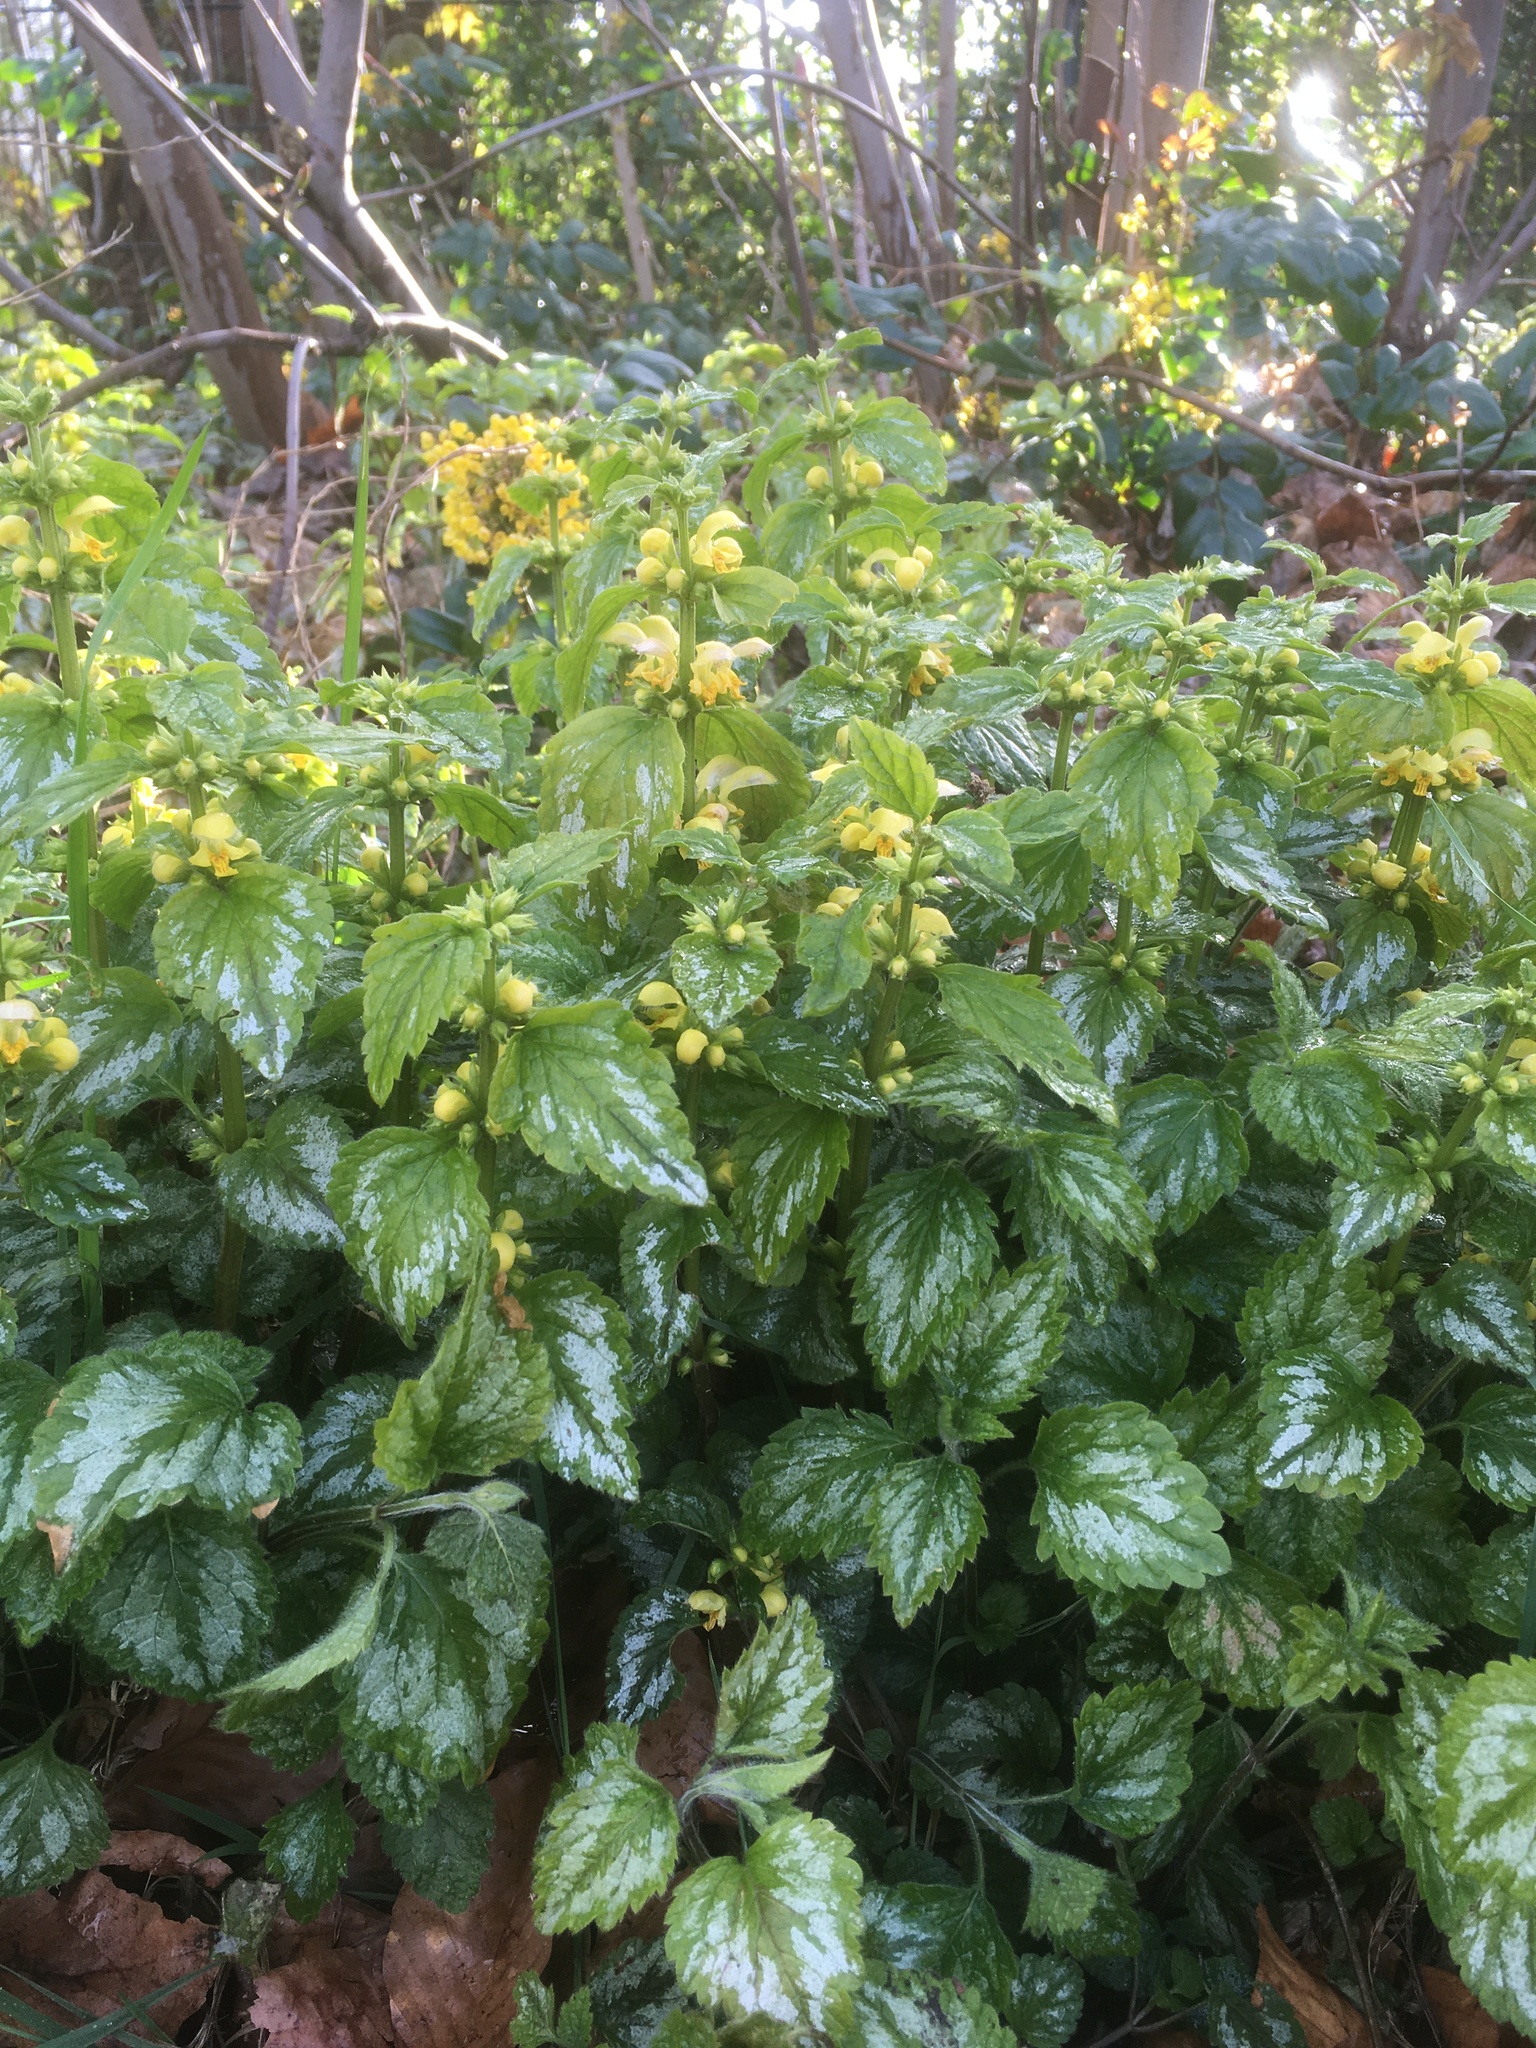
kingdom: Plantae
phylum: Tracheophyta
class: Magnoliopsida
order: Lamiales
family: Lamiaceae
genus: Lamium
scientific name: Lamium galeobdolon
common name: Yellow archangel
